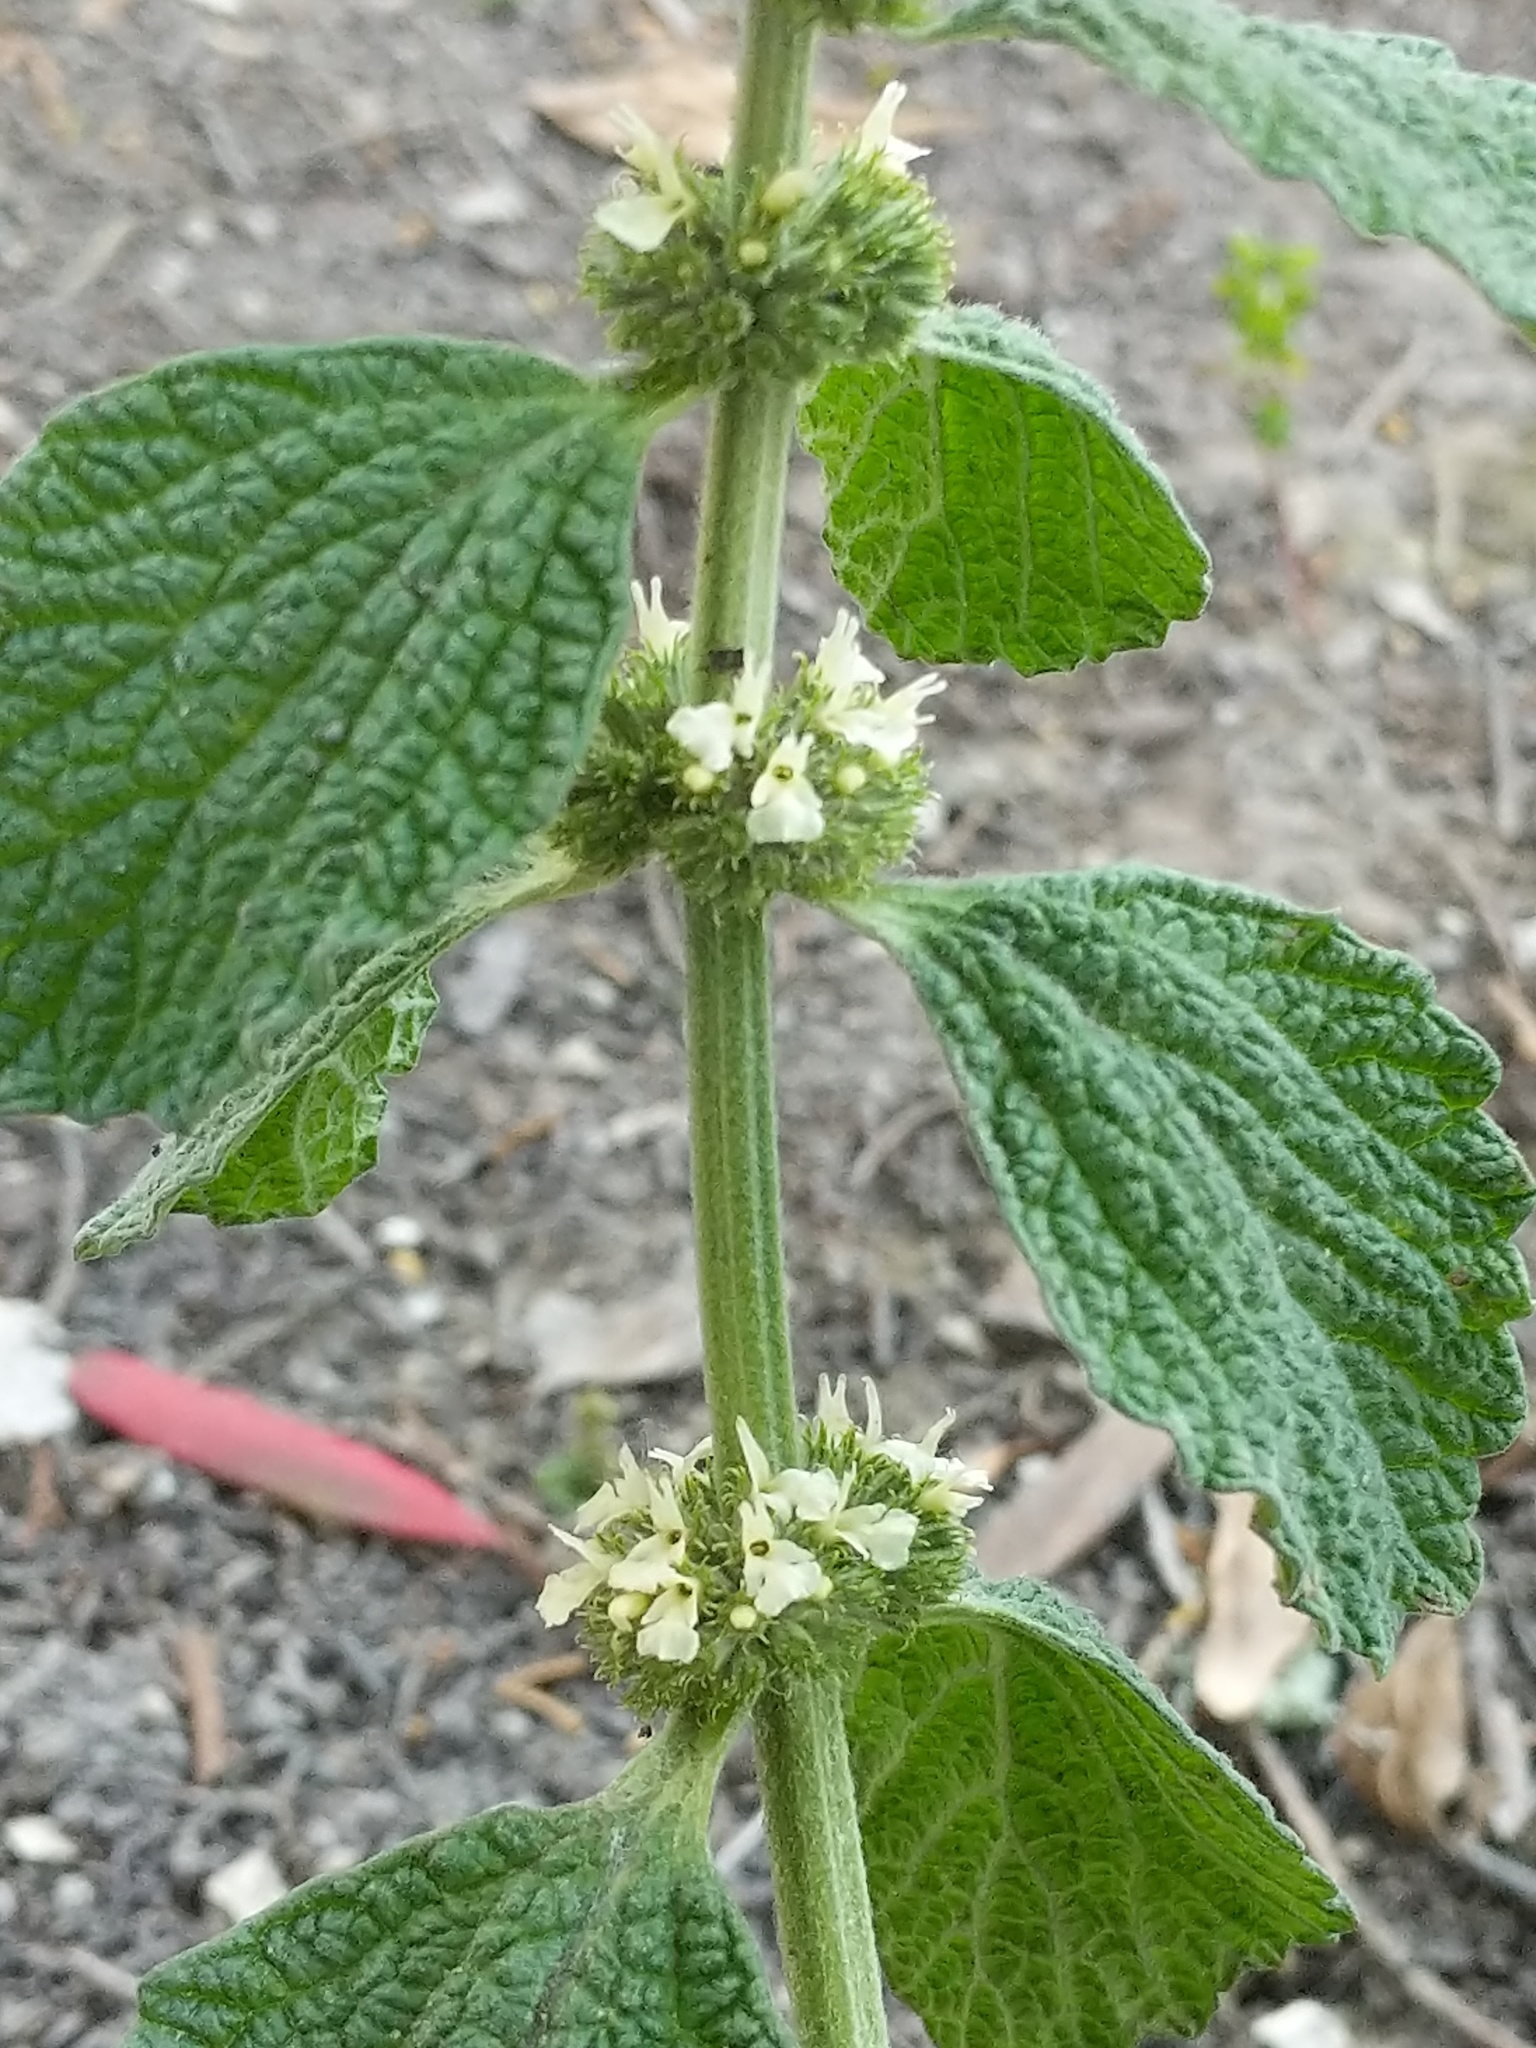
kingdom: Plantae
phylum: Tracheophyta
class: Magnoliopsida
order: Lamiales
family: Lamiaceae
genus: Marrubium
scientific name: Marrubium vulgare
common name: Horehound
